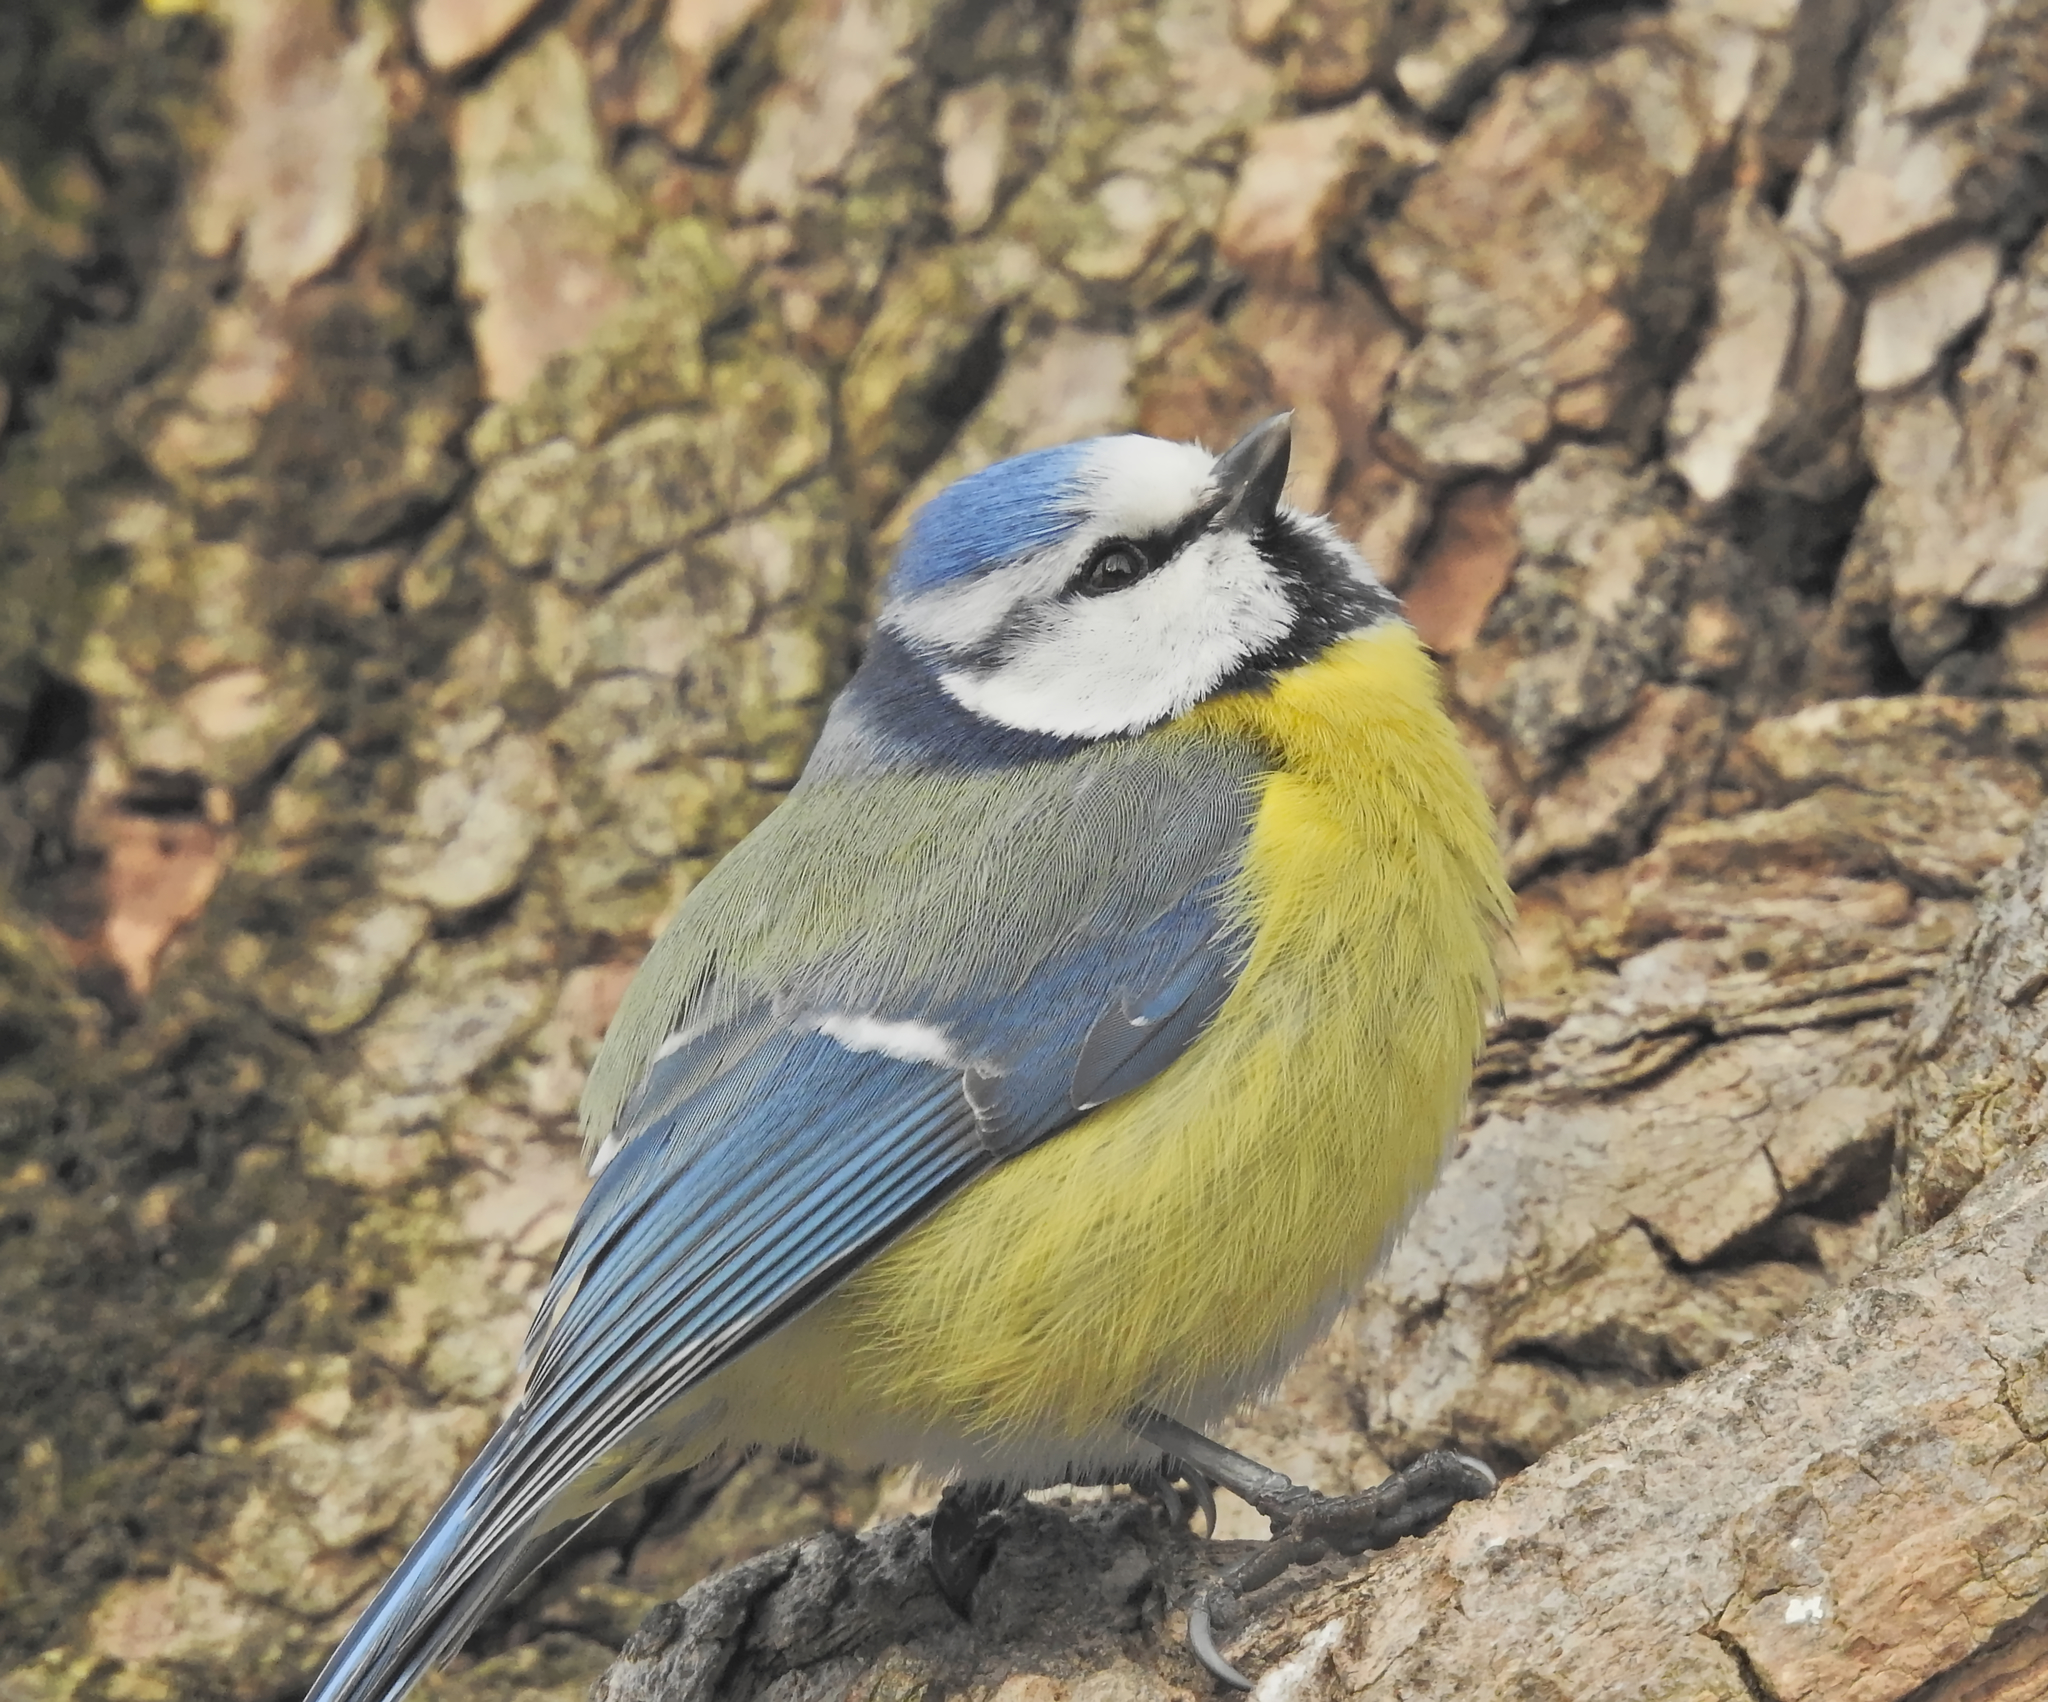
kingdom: Animalia
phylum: Chordata
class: Aves
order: Passeriformes
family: Paridae
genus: Cyanistes
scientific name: Cyanistes caeruleus
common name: Eurasian blue tit
